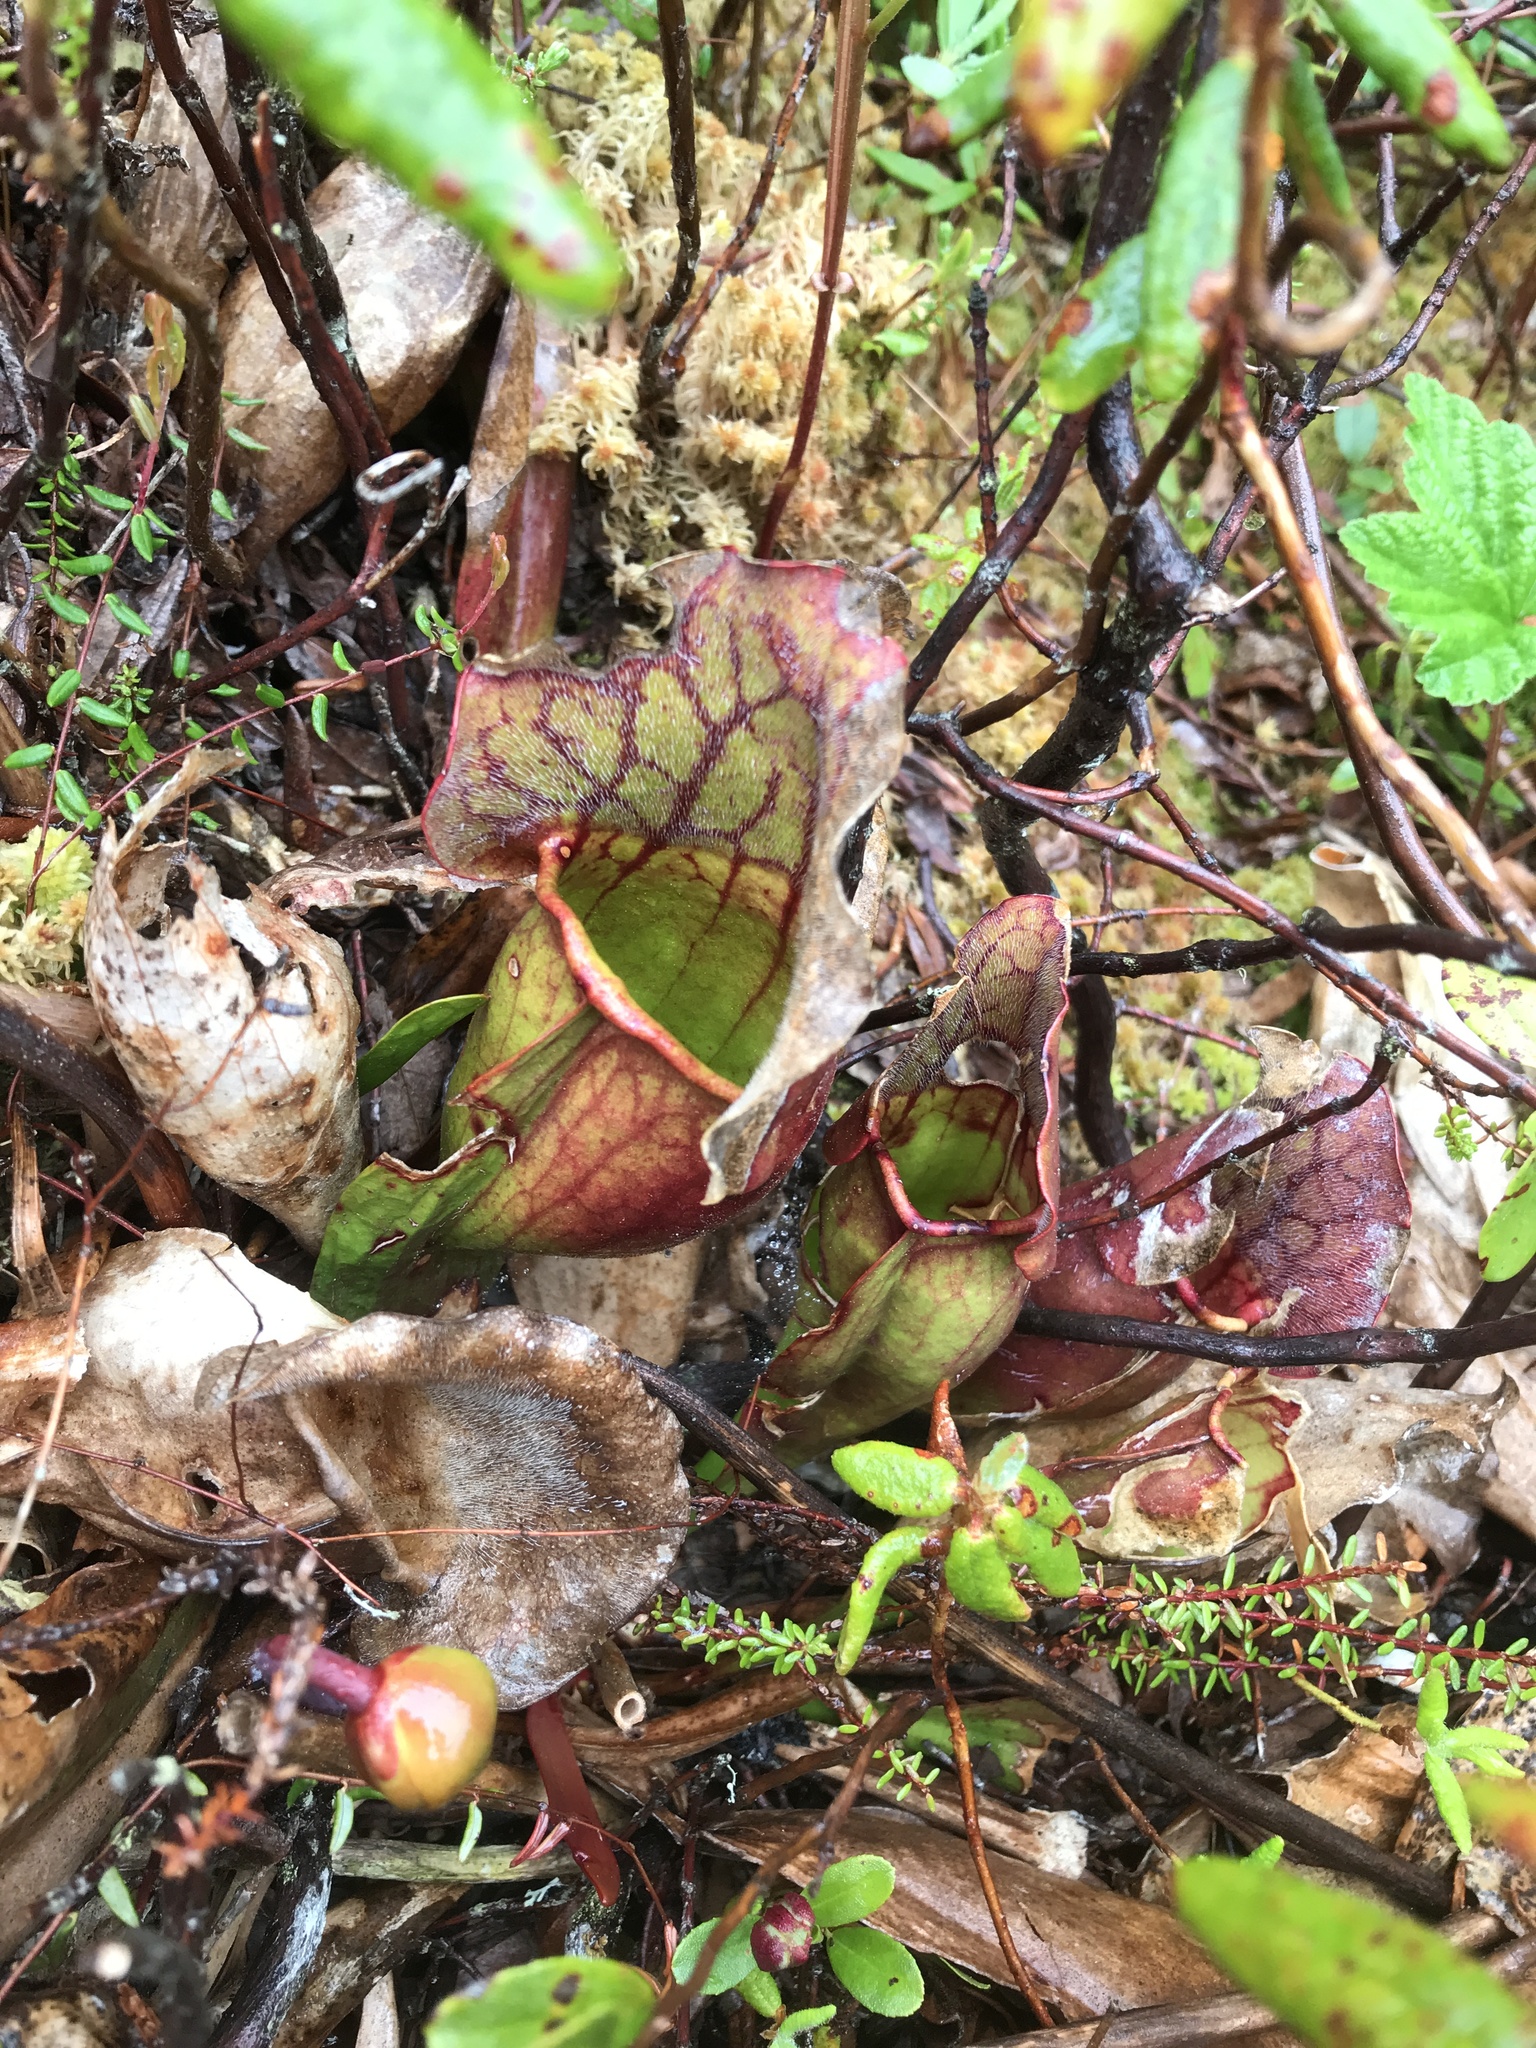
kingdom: Plantae
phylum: Tracheophyta
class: Magnoliopsida
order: Ericales
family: Sarraceniaceae
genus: Sarracenia
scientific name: Sarracenia purpurea
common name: Pitcherplant
